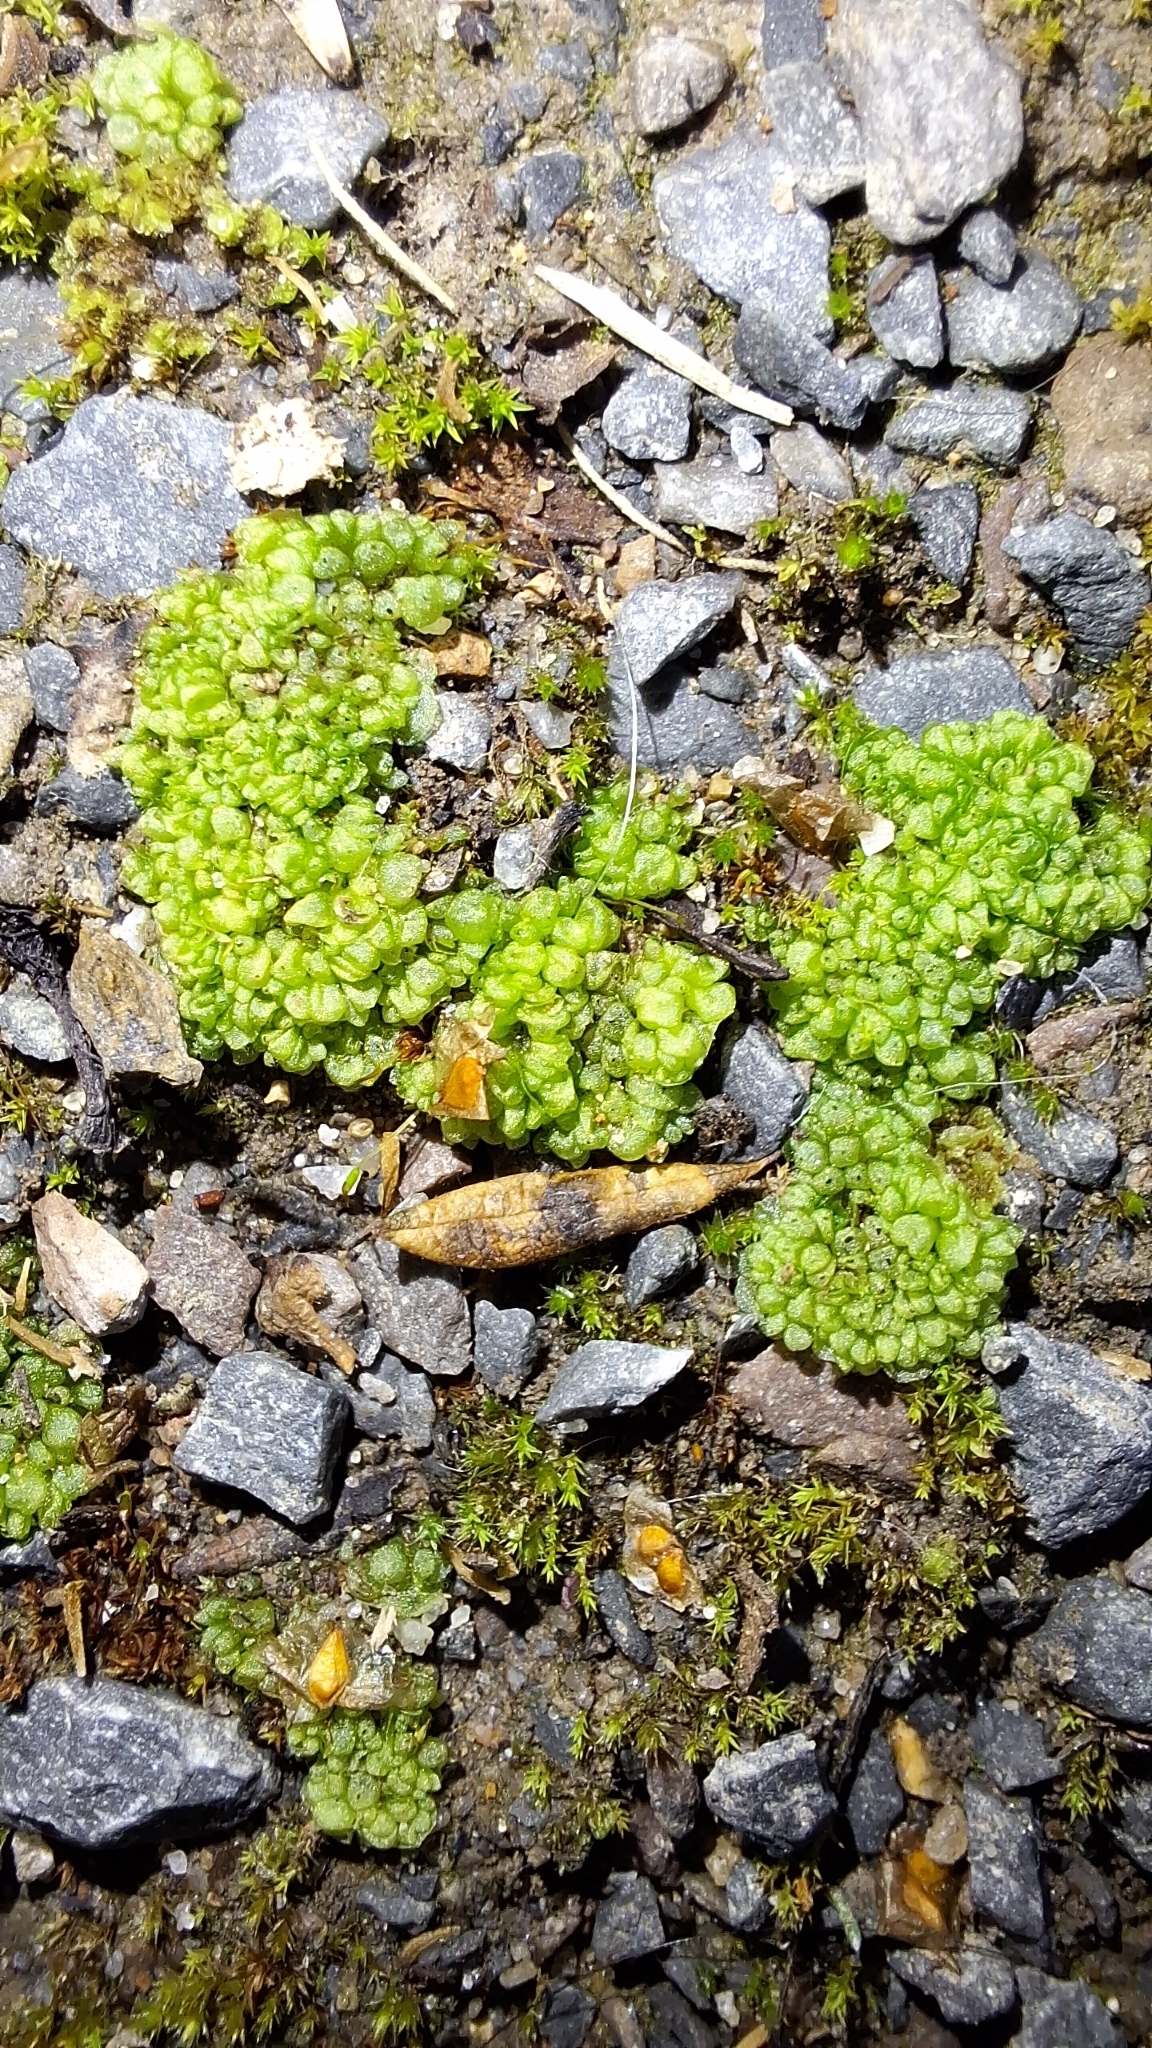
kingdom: Plantae
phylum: Marchantiophyta
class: Marchantiopsida
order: Sphaerocarpales
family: Sphaerocarpaceae
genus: Sphaerocarpos
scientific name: Sphaerocarpos texanus
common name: Texas balloonwort
